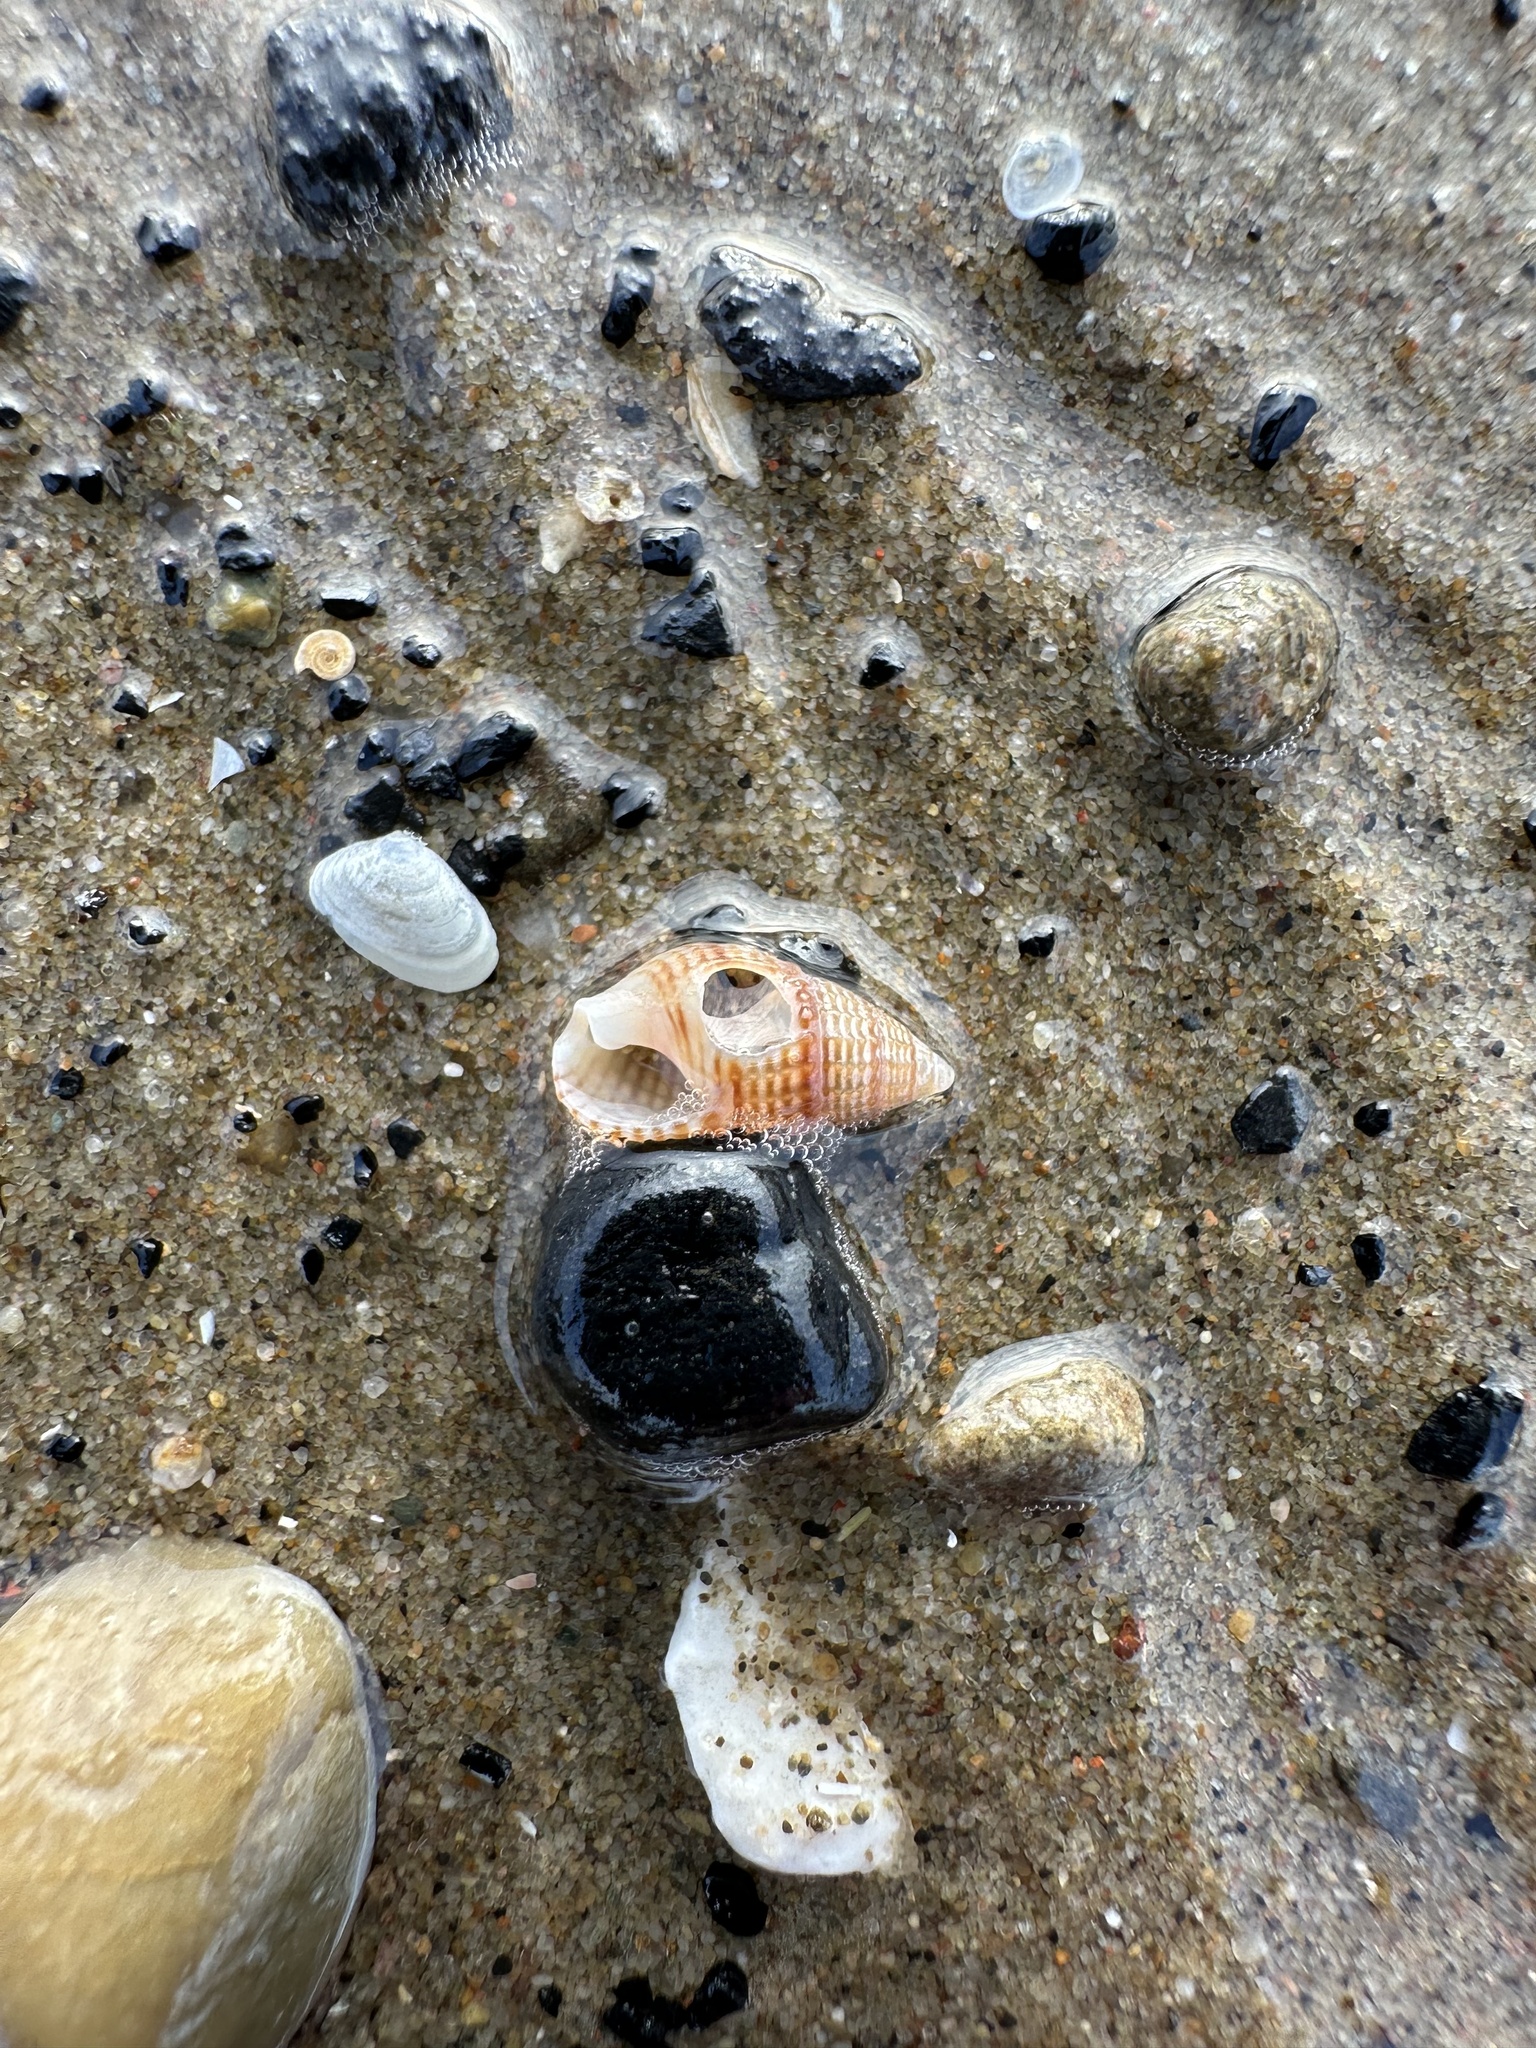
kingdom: Animalia
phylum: Mollusca
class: Gastropoda
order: Neogastropoda
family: Nassariidae
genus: Ilyanassa
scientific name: Ilyanassa trivittata
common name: Three-line mudsnail
